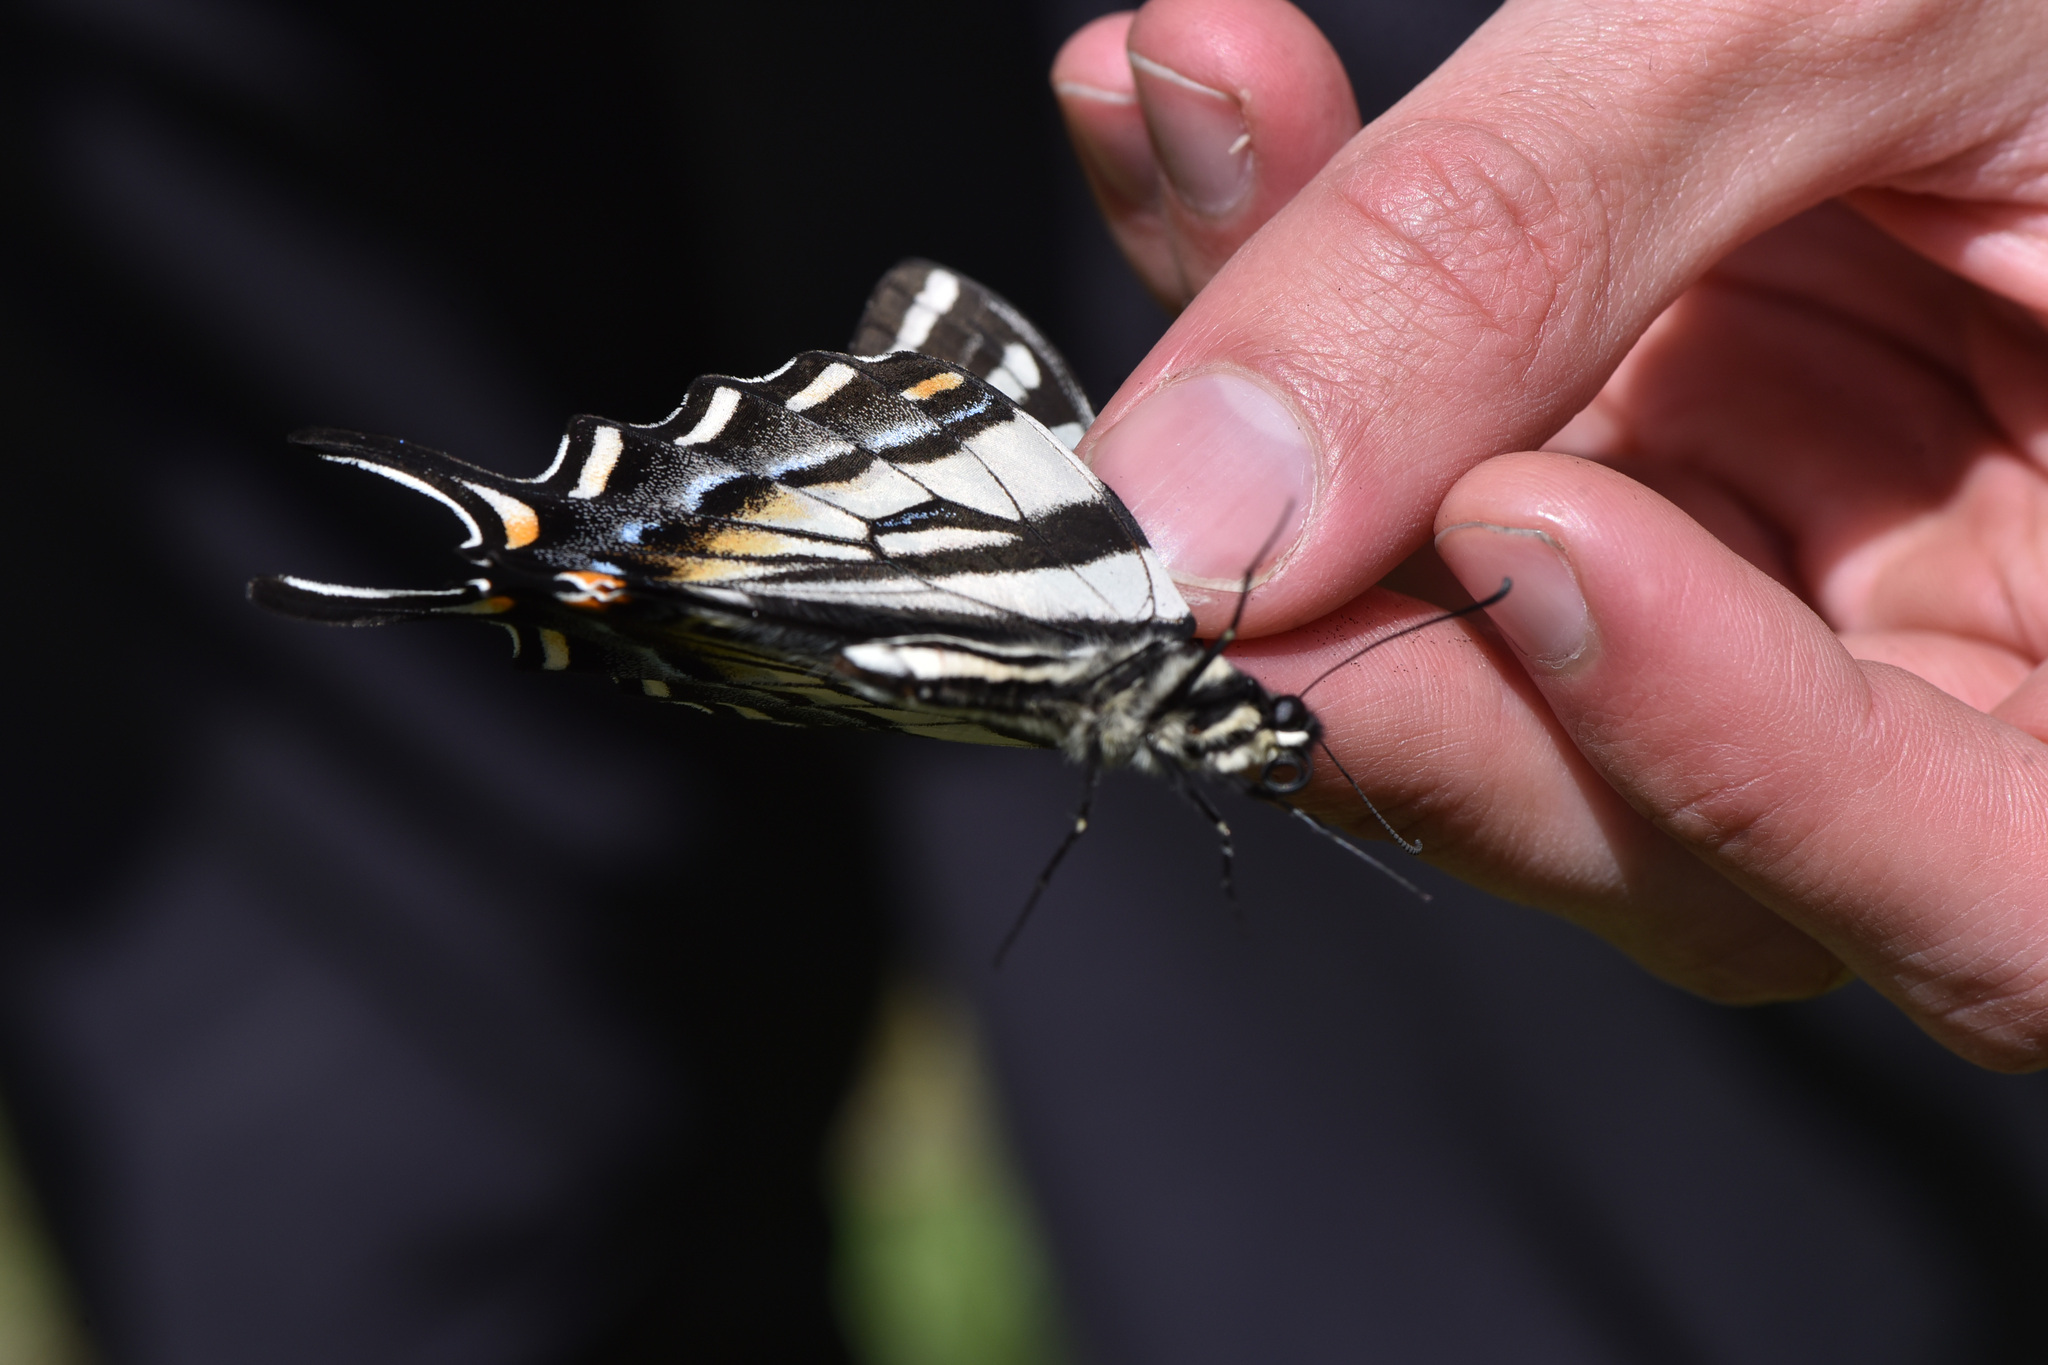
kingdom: Animalia
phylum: Arthropoda
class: Insecta
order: Lepidoptera
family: Papilionidae
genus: Papilio
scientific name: Papilio eurymedon
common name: Pale tiger swallowtail
